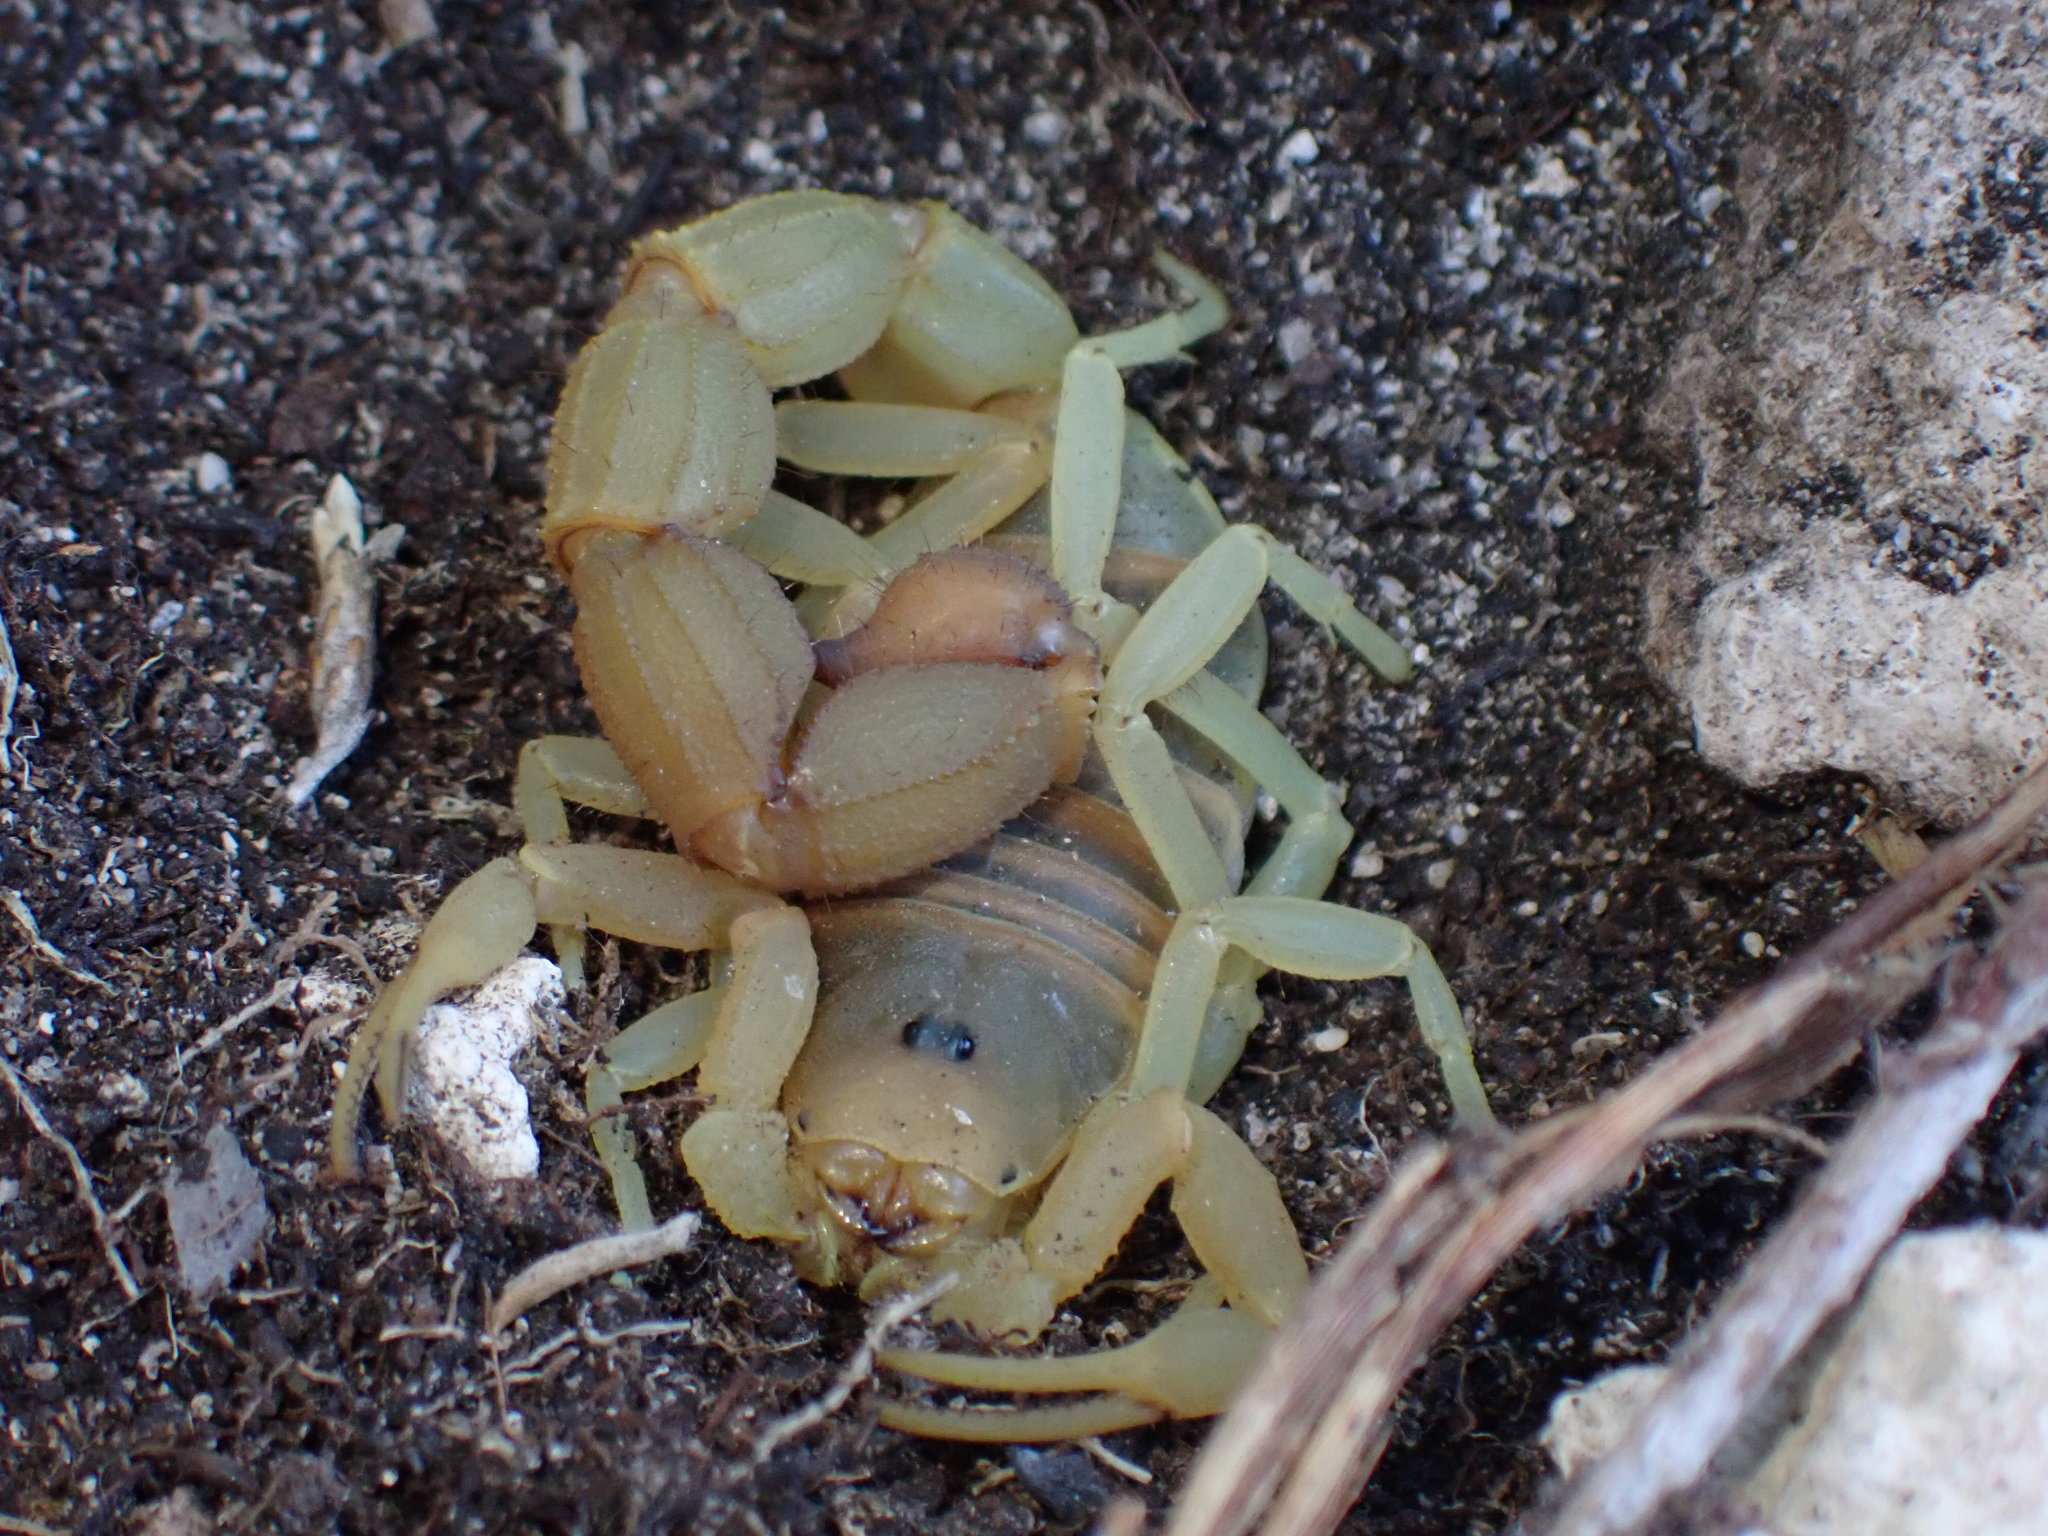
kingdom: Animalia
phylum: Arthropoda
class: Arachnida
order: Scorpiones
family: Buthidae
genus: Parabuthus
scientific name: Parabuthus planicauda
